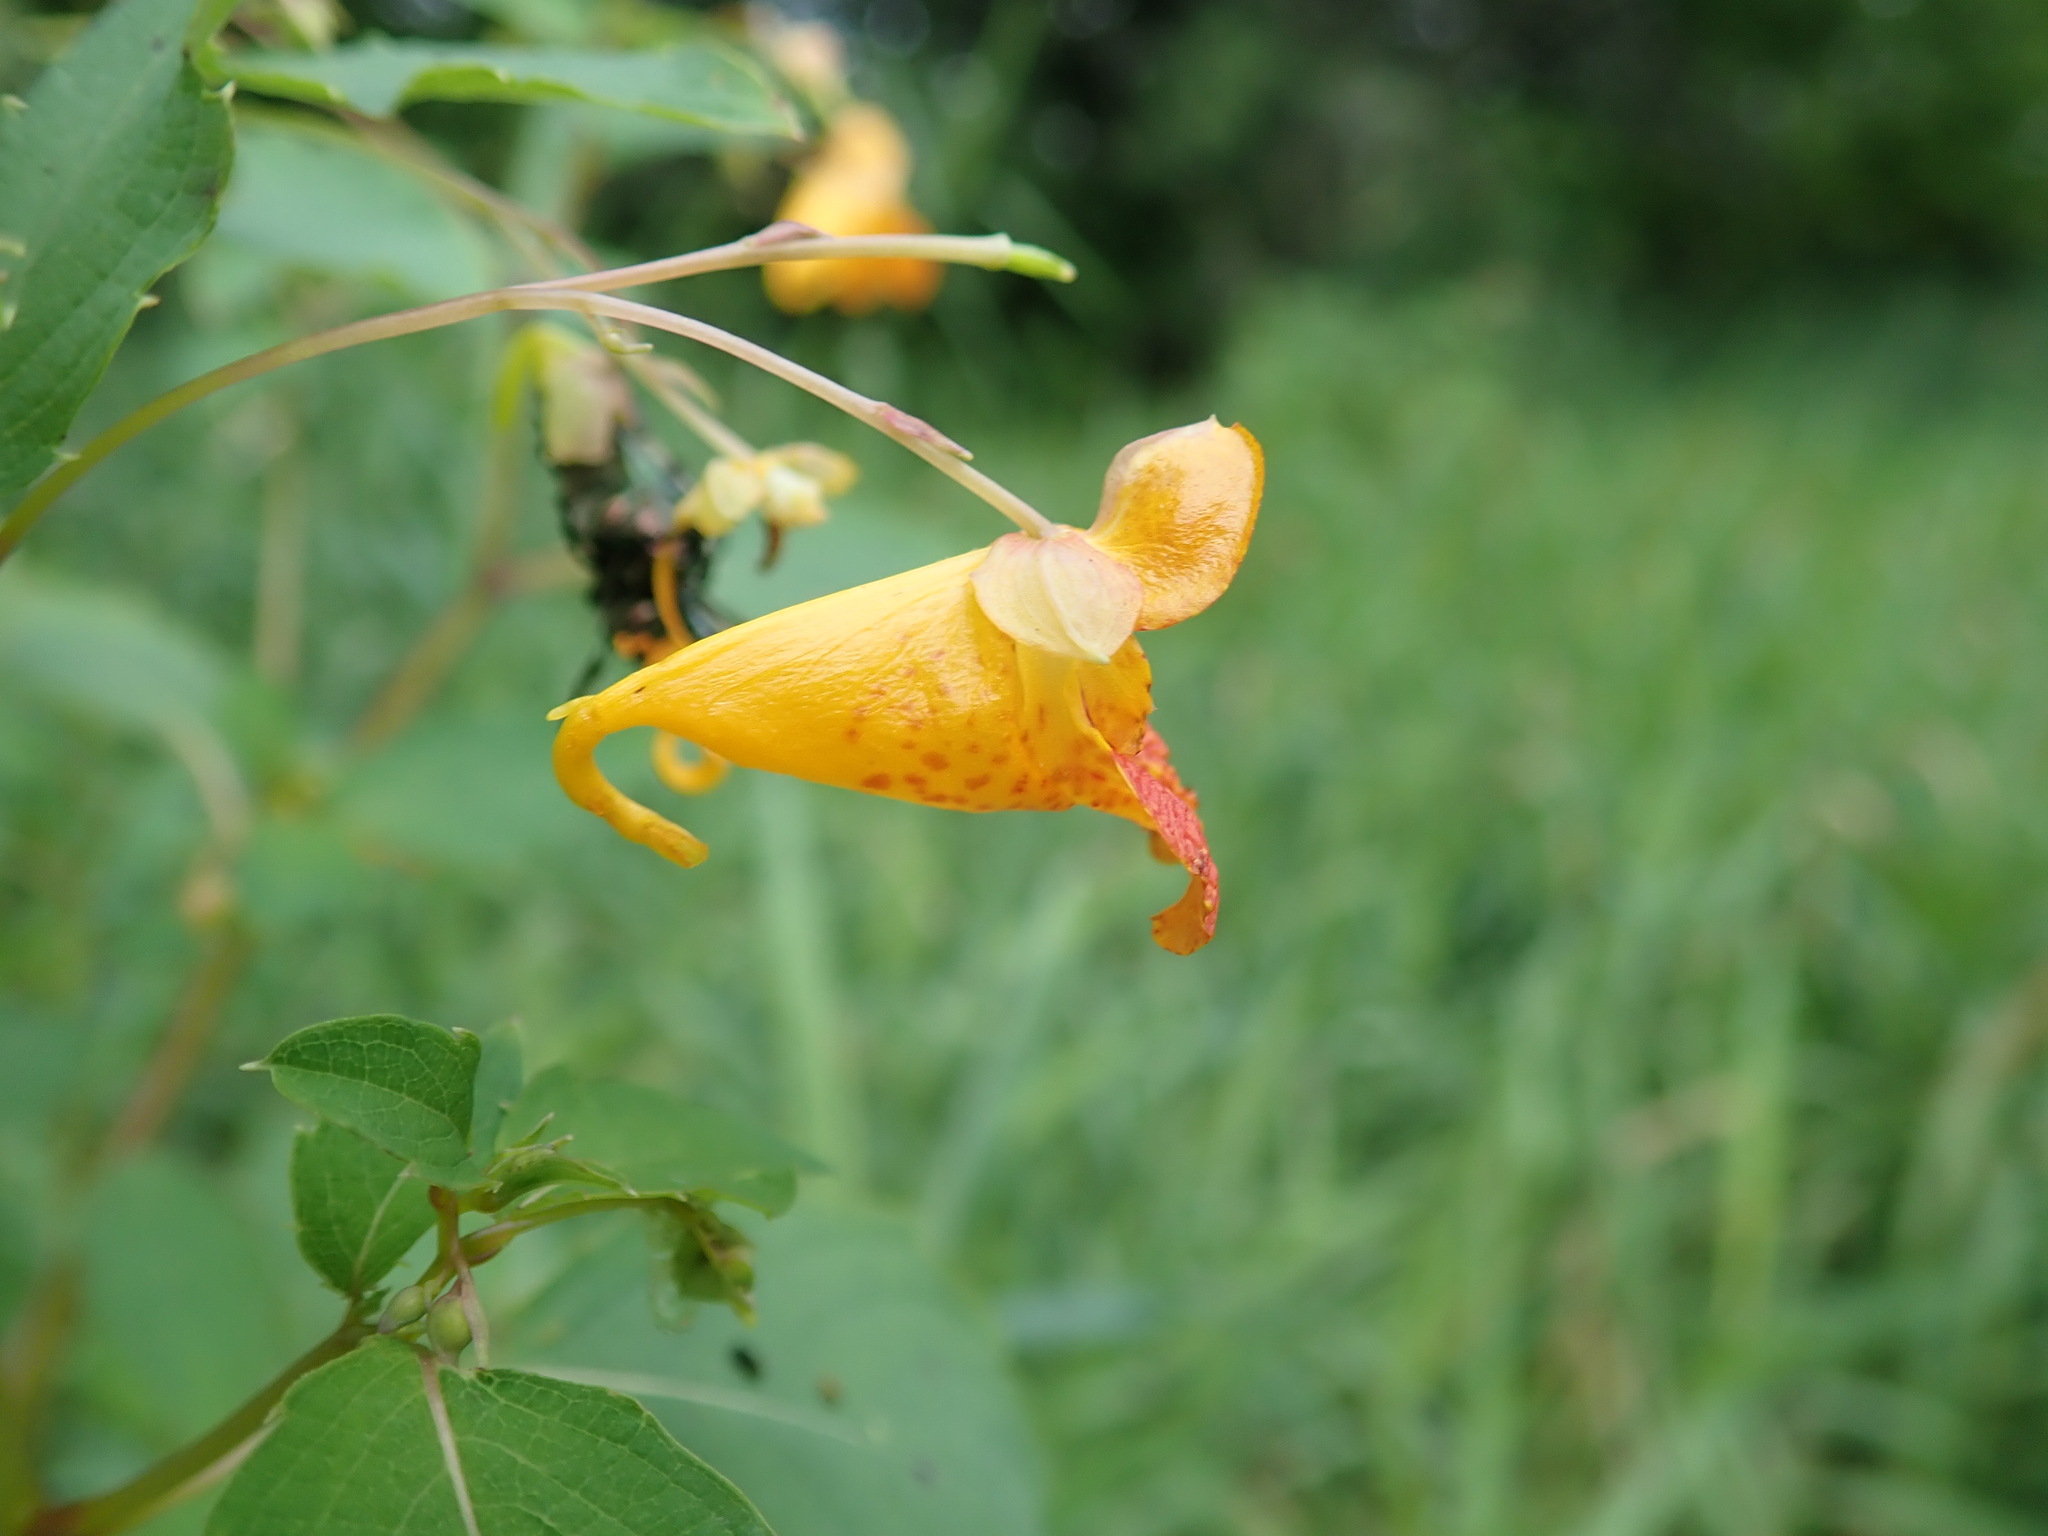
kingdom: Plantae
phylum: Tracheophyta
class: Magnoliopsida
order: Ericales
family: Balsaminaceae
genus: Impatiens
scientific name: Impatiens capensis
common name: Orange balsam
